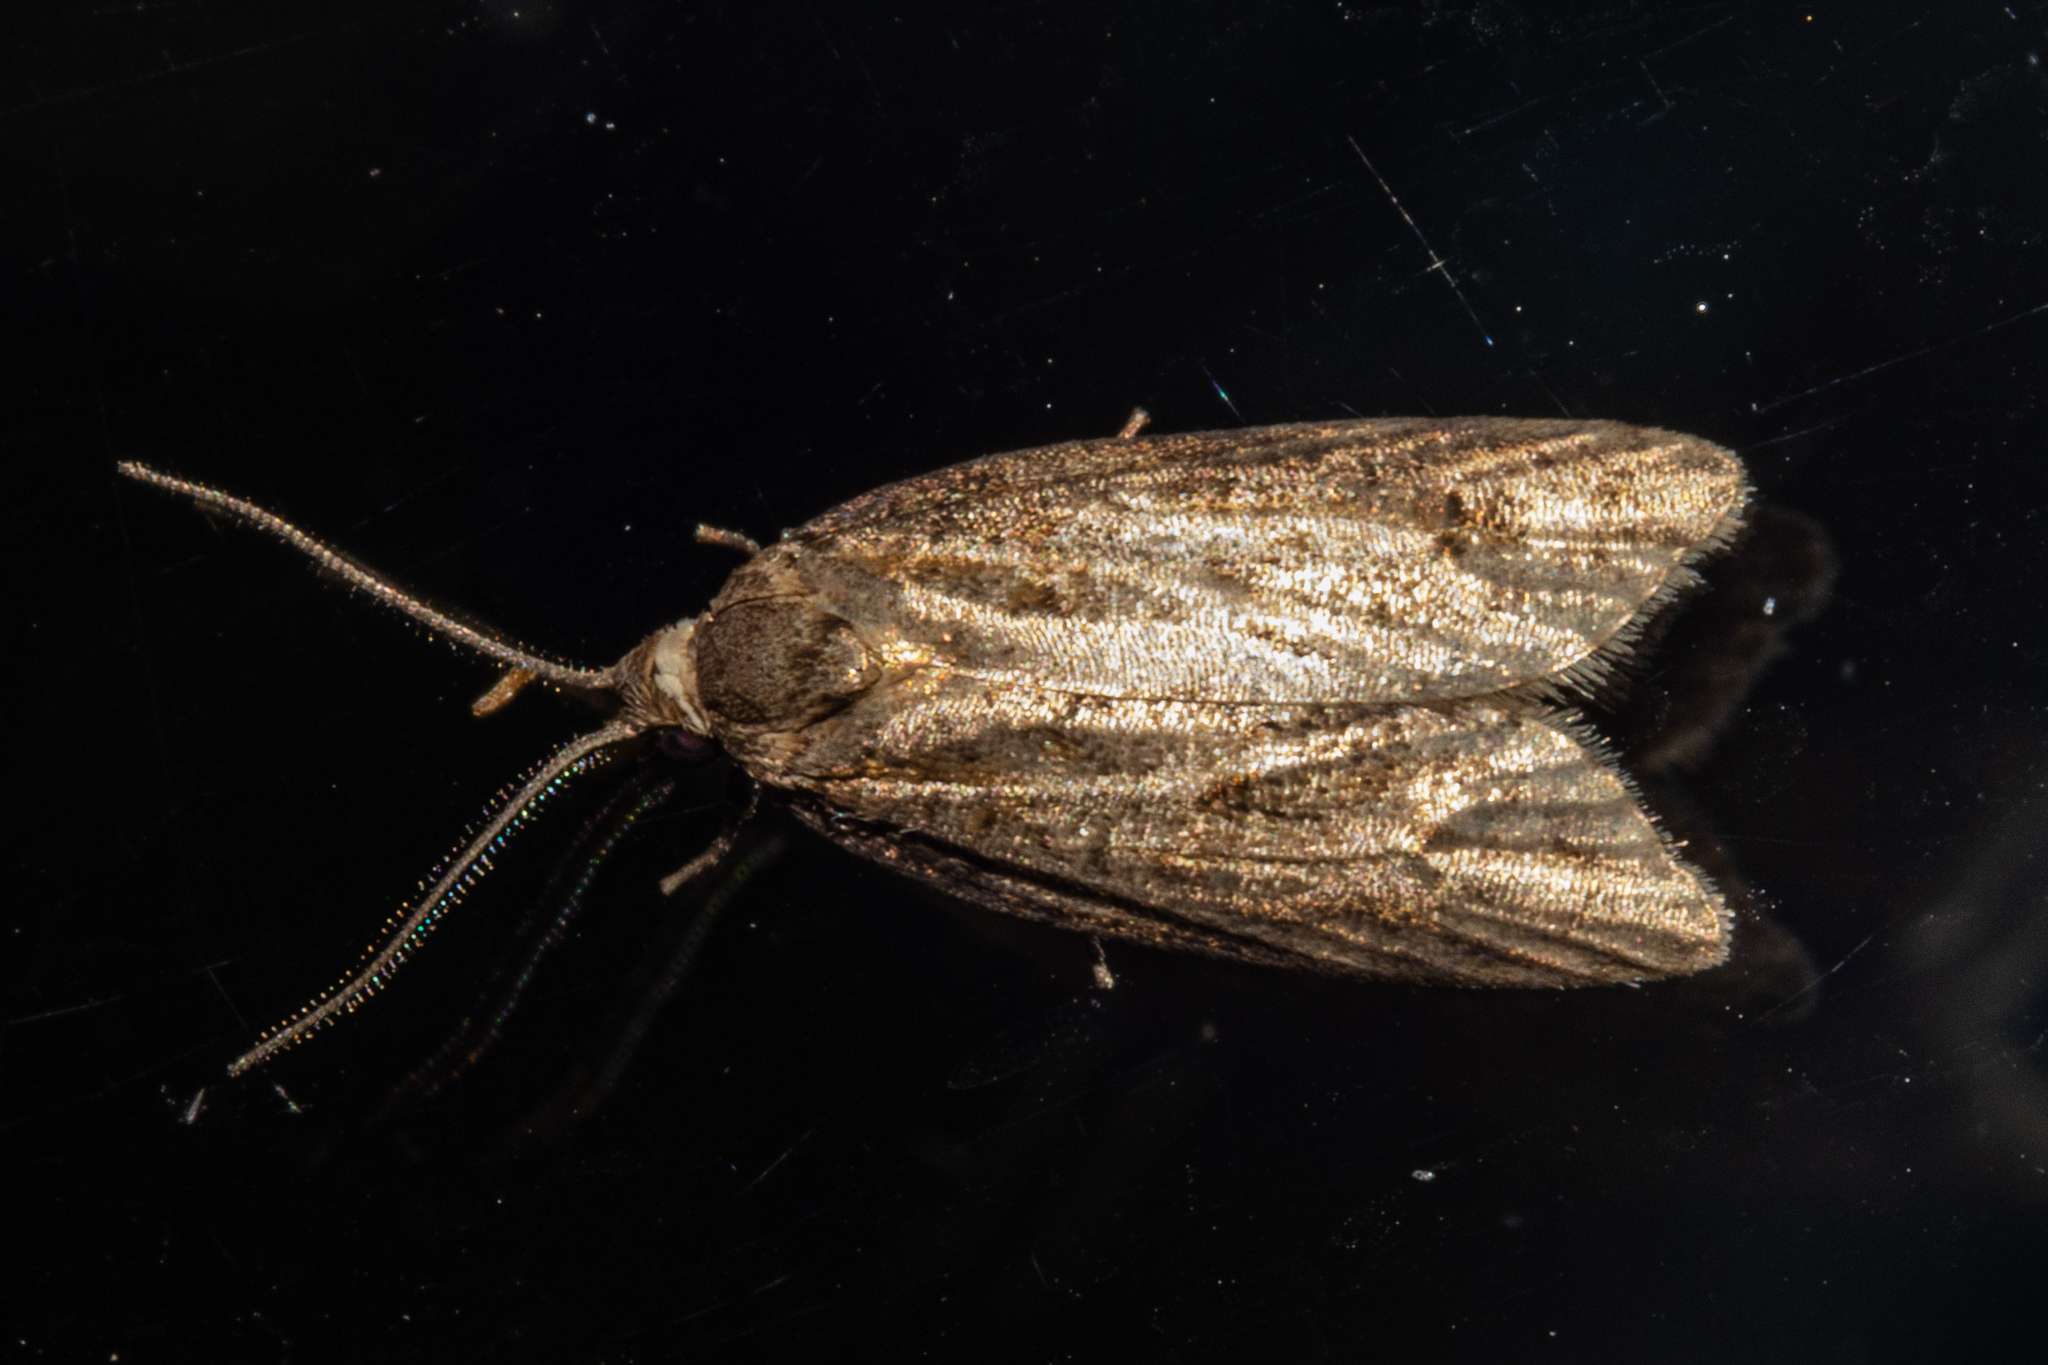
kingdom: Animalia
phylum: Arthropoda
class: Insecta
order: Lepidoptera
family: Tortricidae
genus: Prothelymna
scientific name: Prothelymna antiquana
